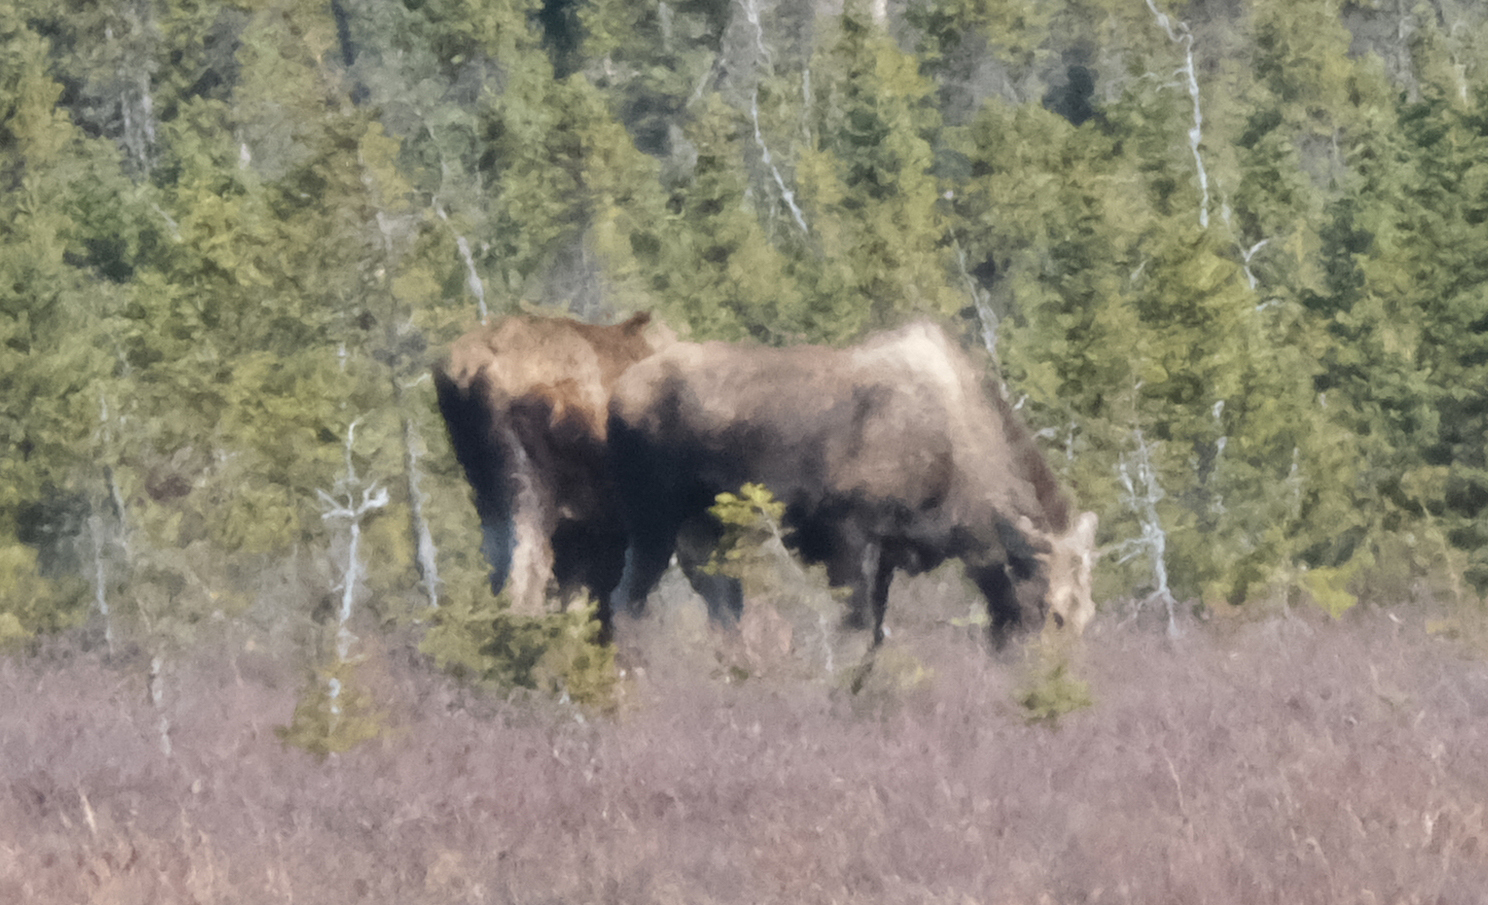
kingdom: Animalia
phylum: Chordata
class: Mammalia
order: Artiodactyla
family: Cervidae
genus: Alces
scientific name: Alces alces
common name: Moose
